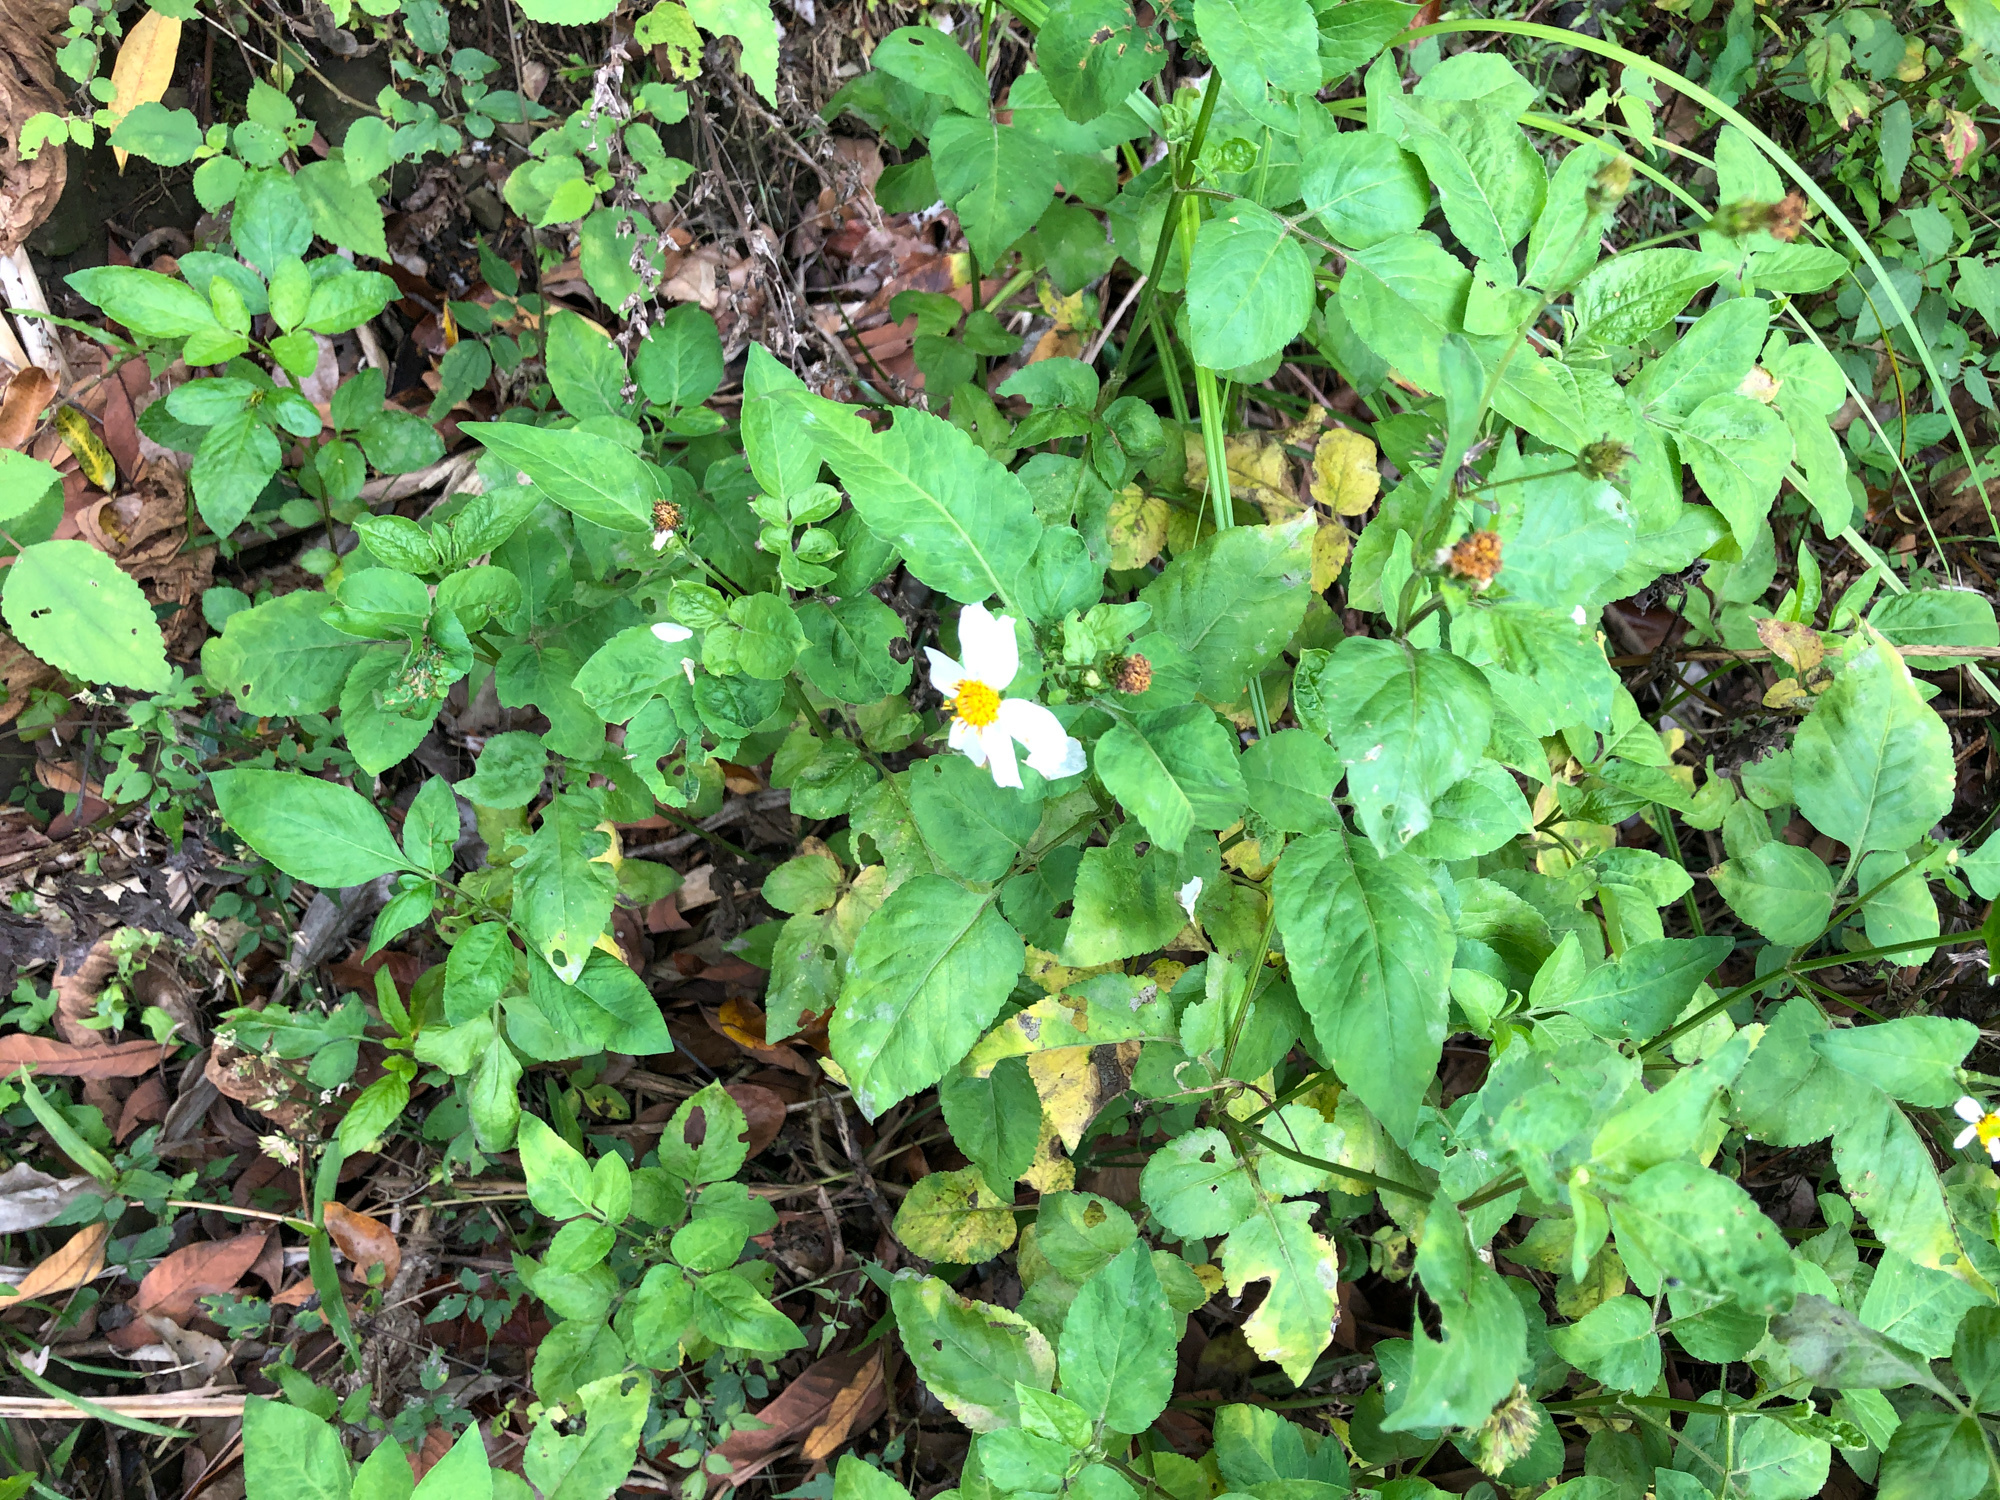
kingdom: Plantae
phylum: Tracheophyta
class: Magnoliopsida
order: Asterales
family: Asteraceae
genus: Bidens
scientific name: Bidens alba
